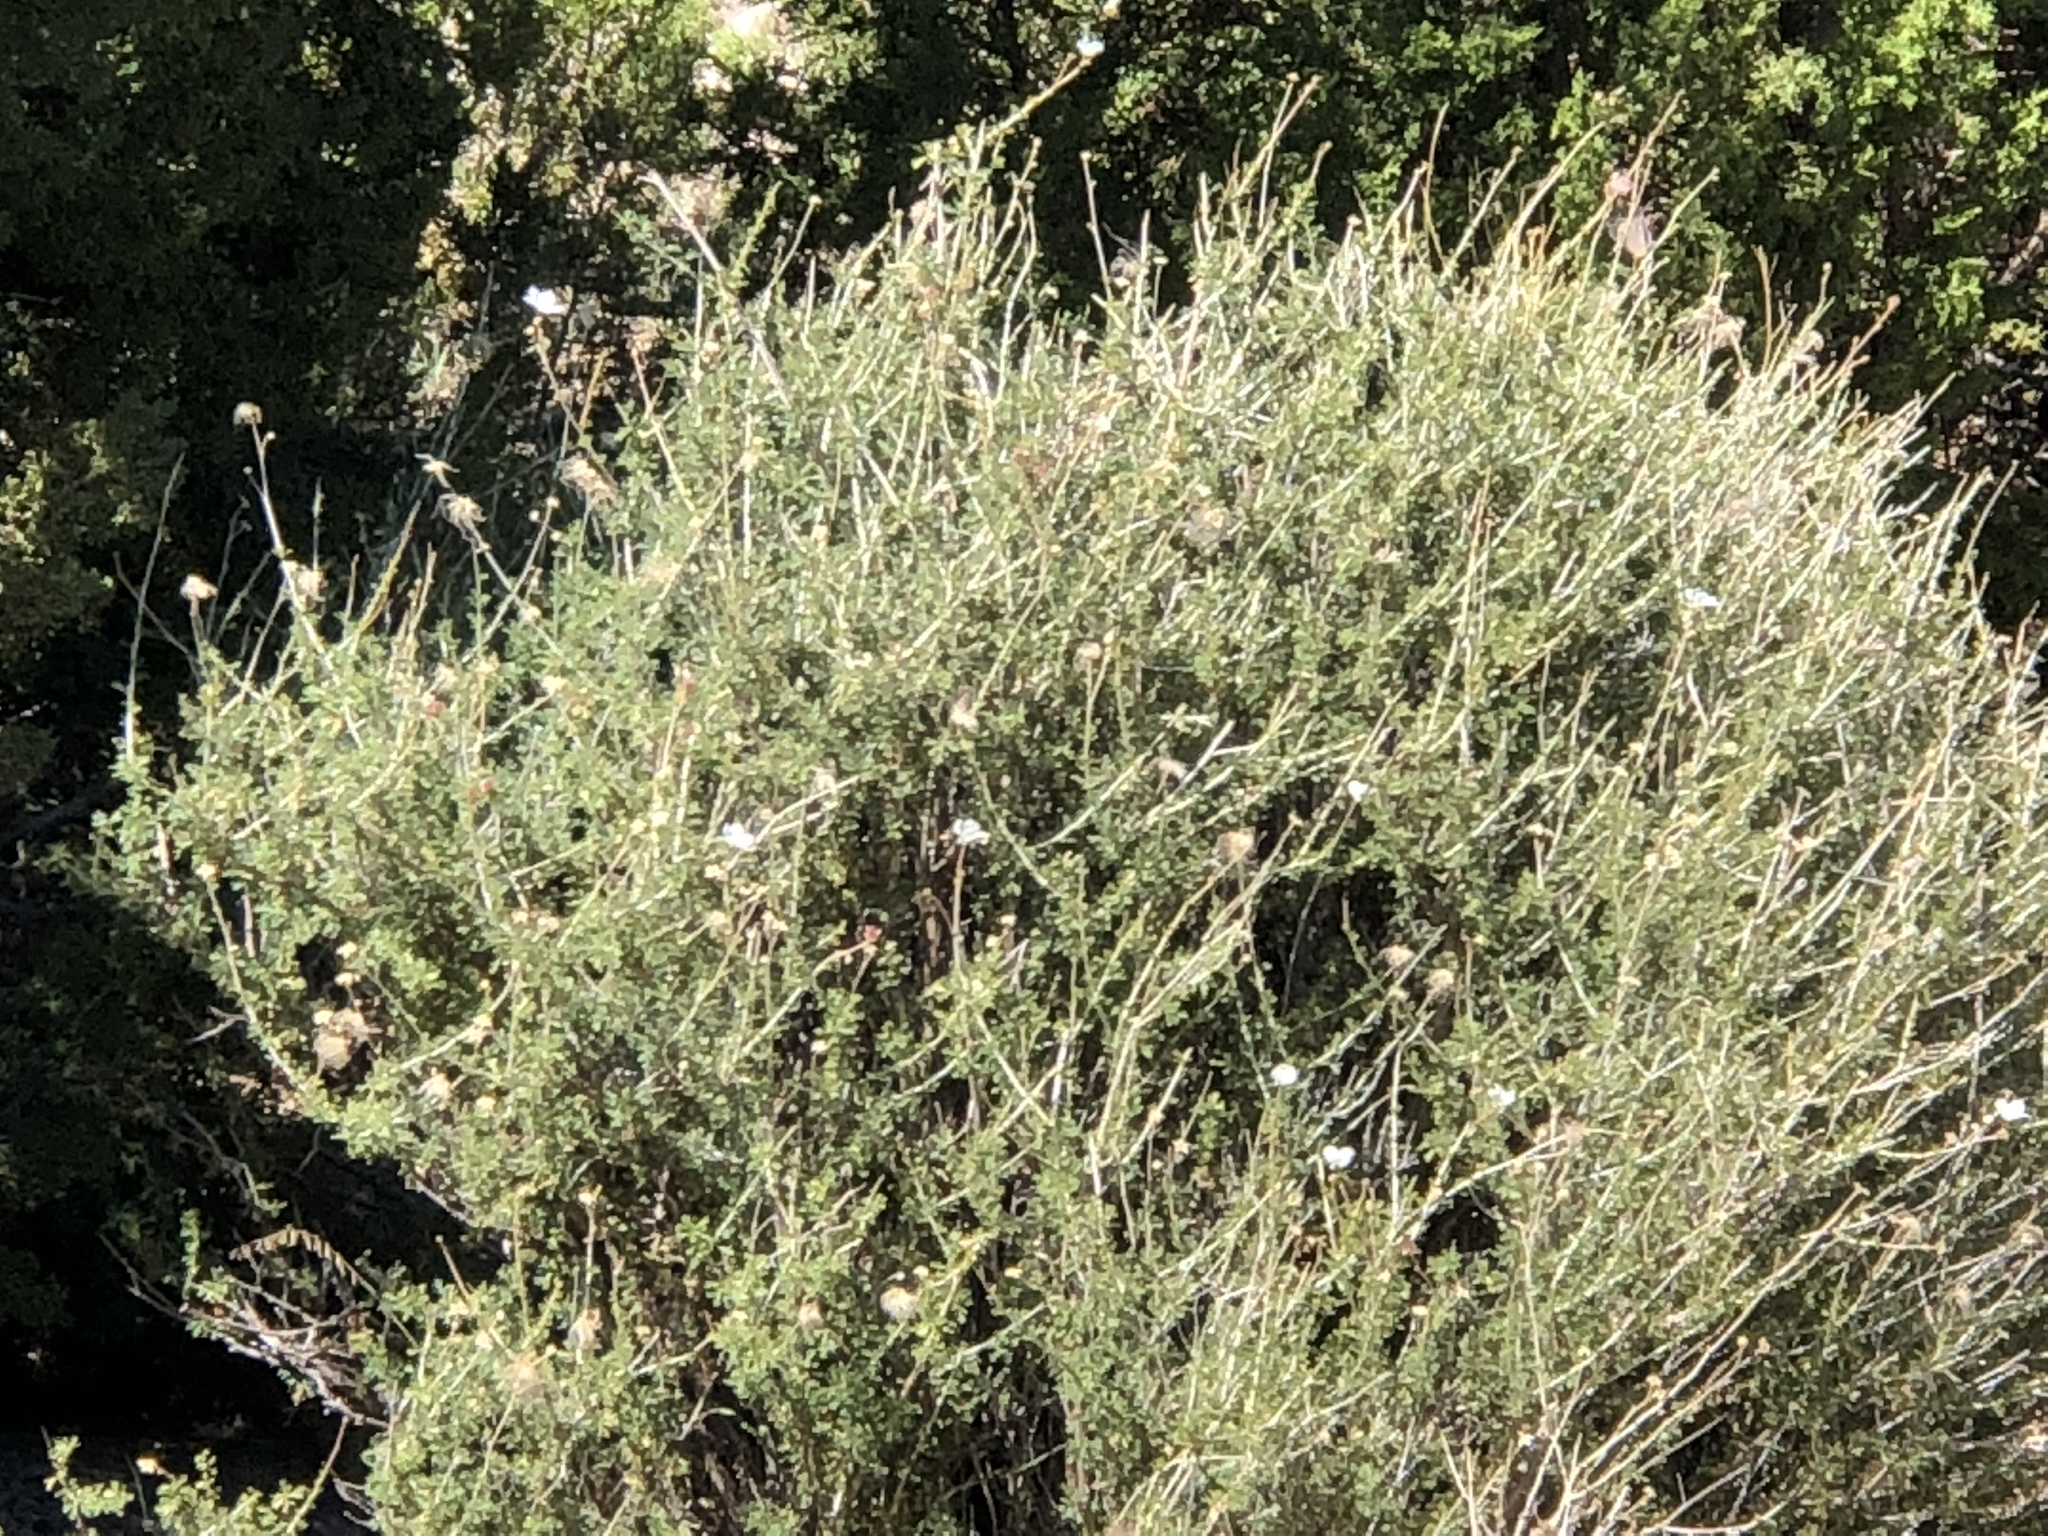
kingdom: Plantae
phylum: Tracheophyta
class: Magnoliopsida
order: Rosales
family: Rosaceae
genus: Fallugia
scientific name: Fallugia paradoxa
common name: Apache-plume
